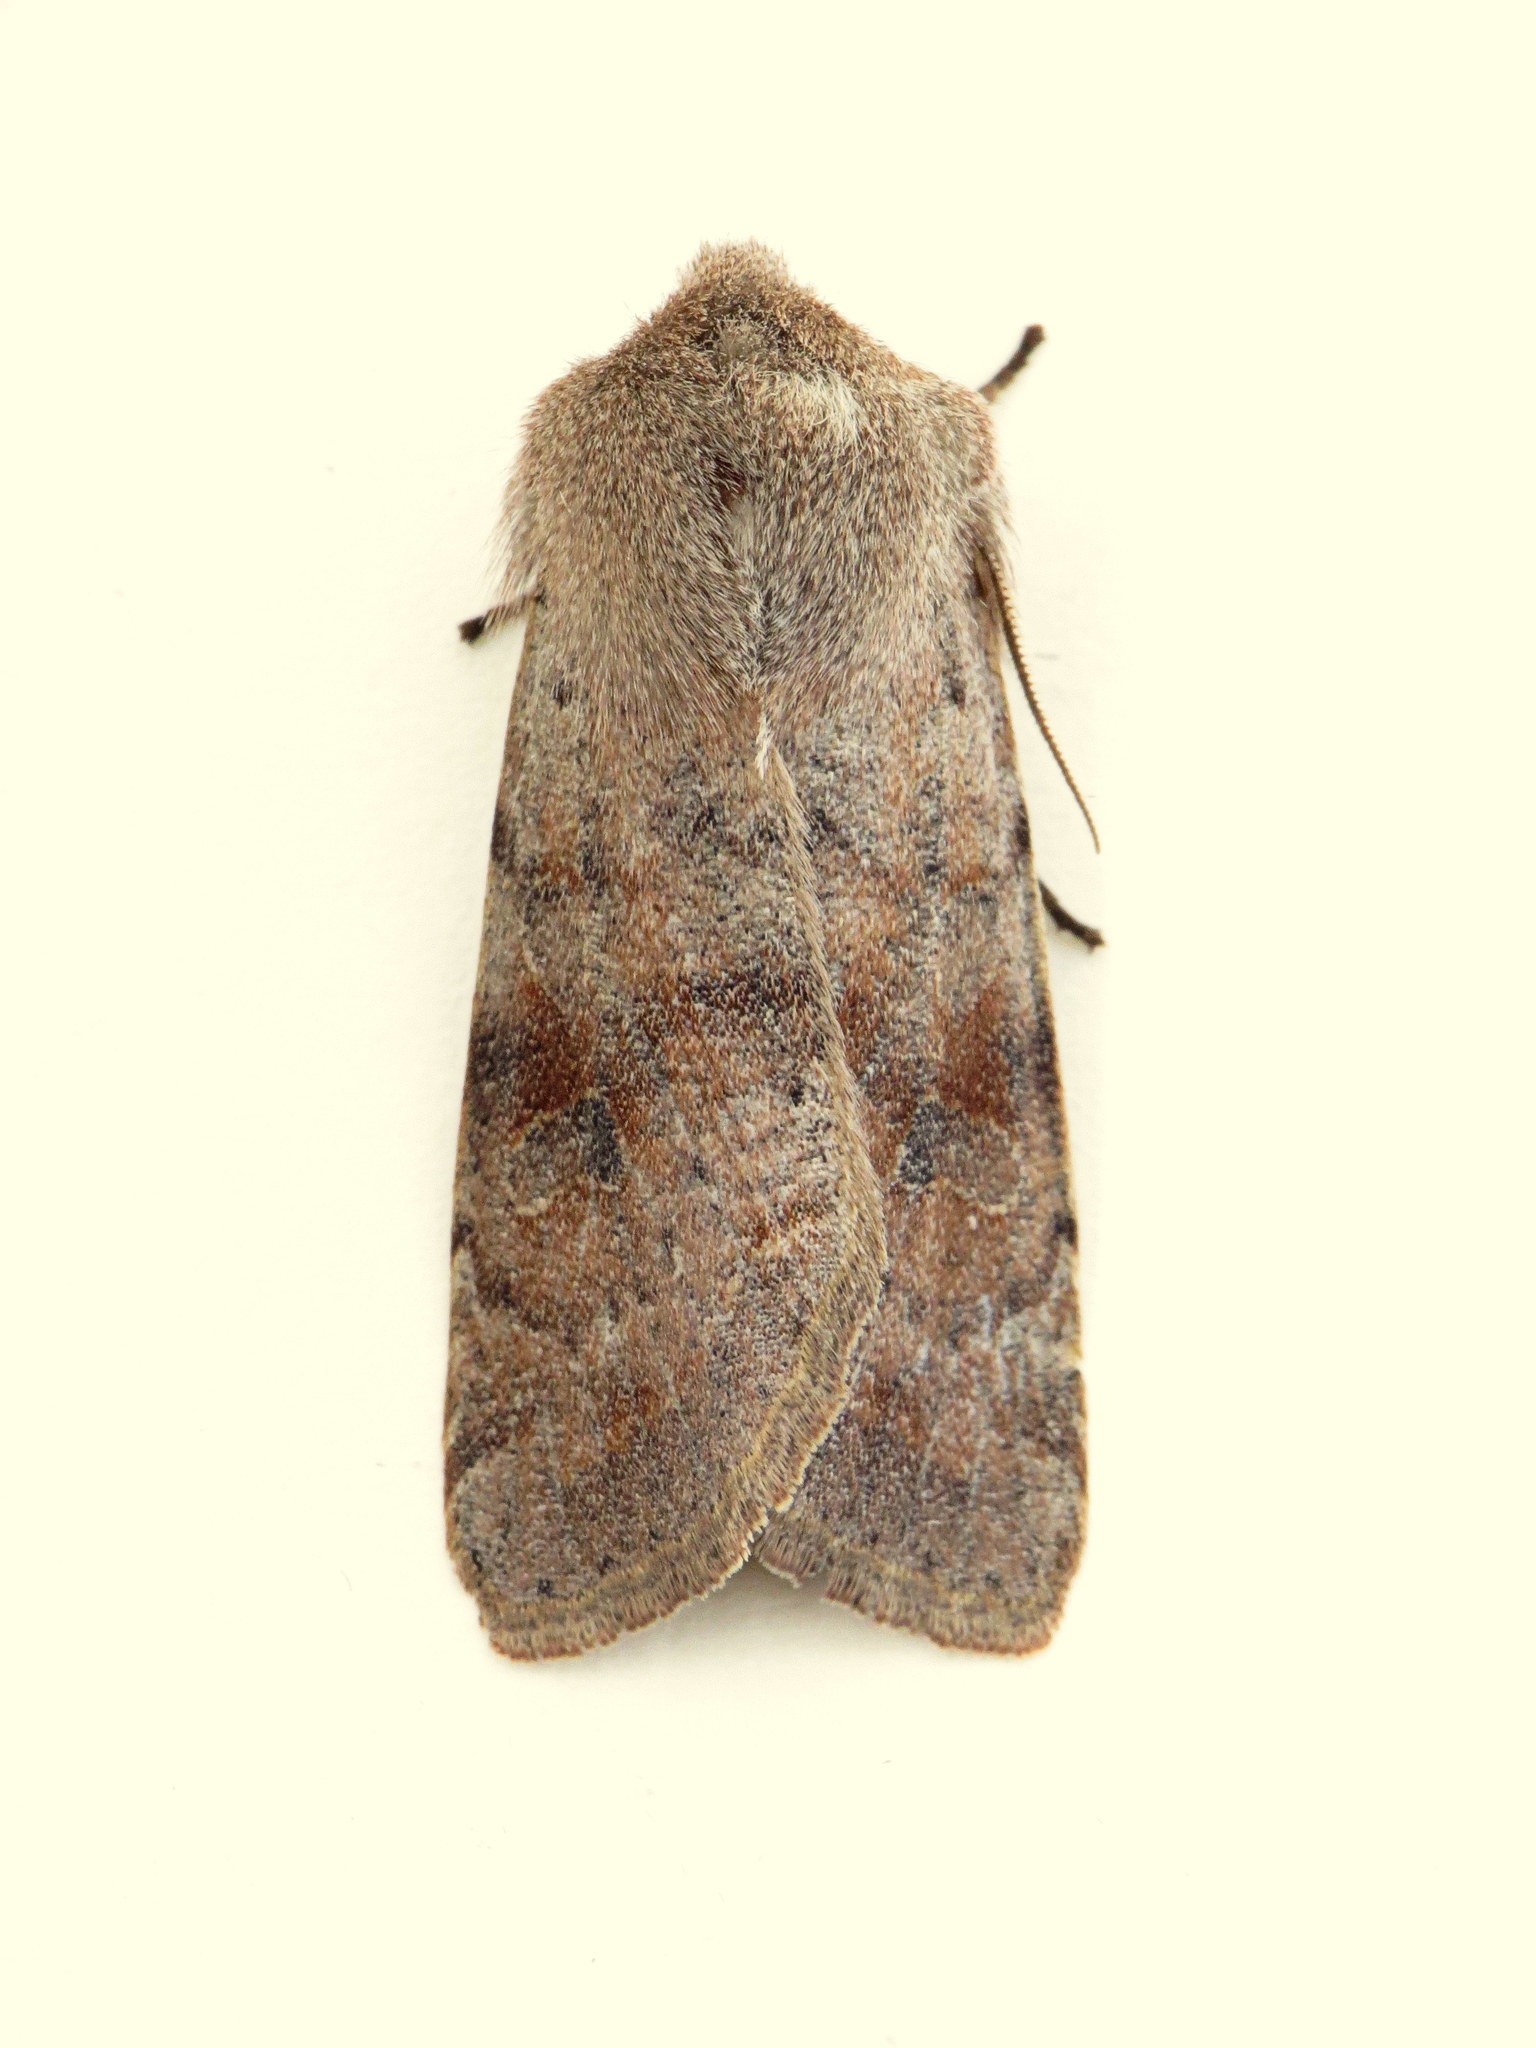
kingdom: Animalia
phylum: Arthropoda
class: Insecta
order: Lepidoptera
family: Noctuidae
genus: Orthosia
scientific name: Orthosia hibisci
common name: Green fruitworm
